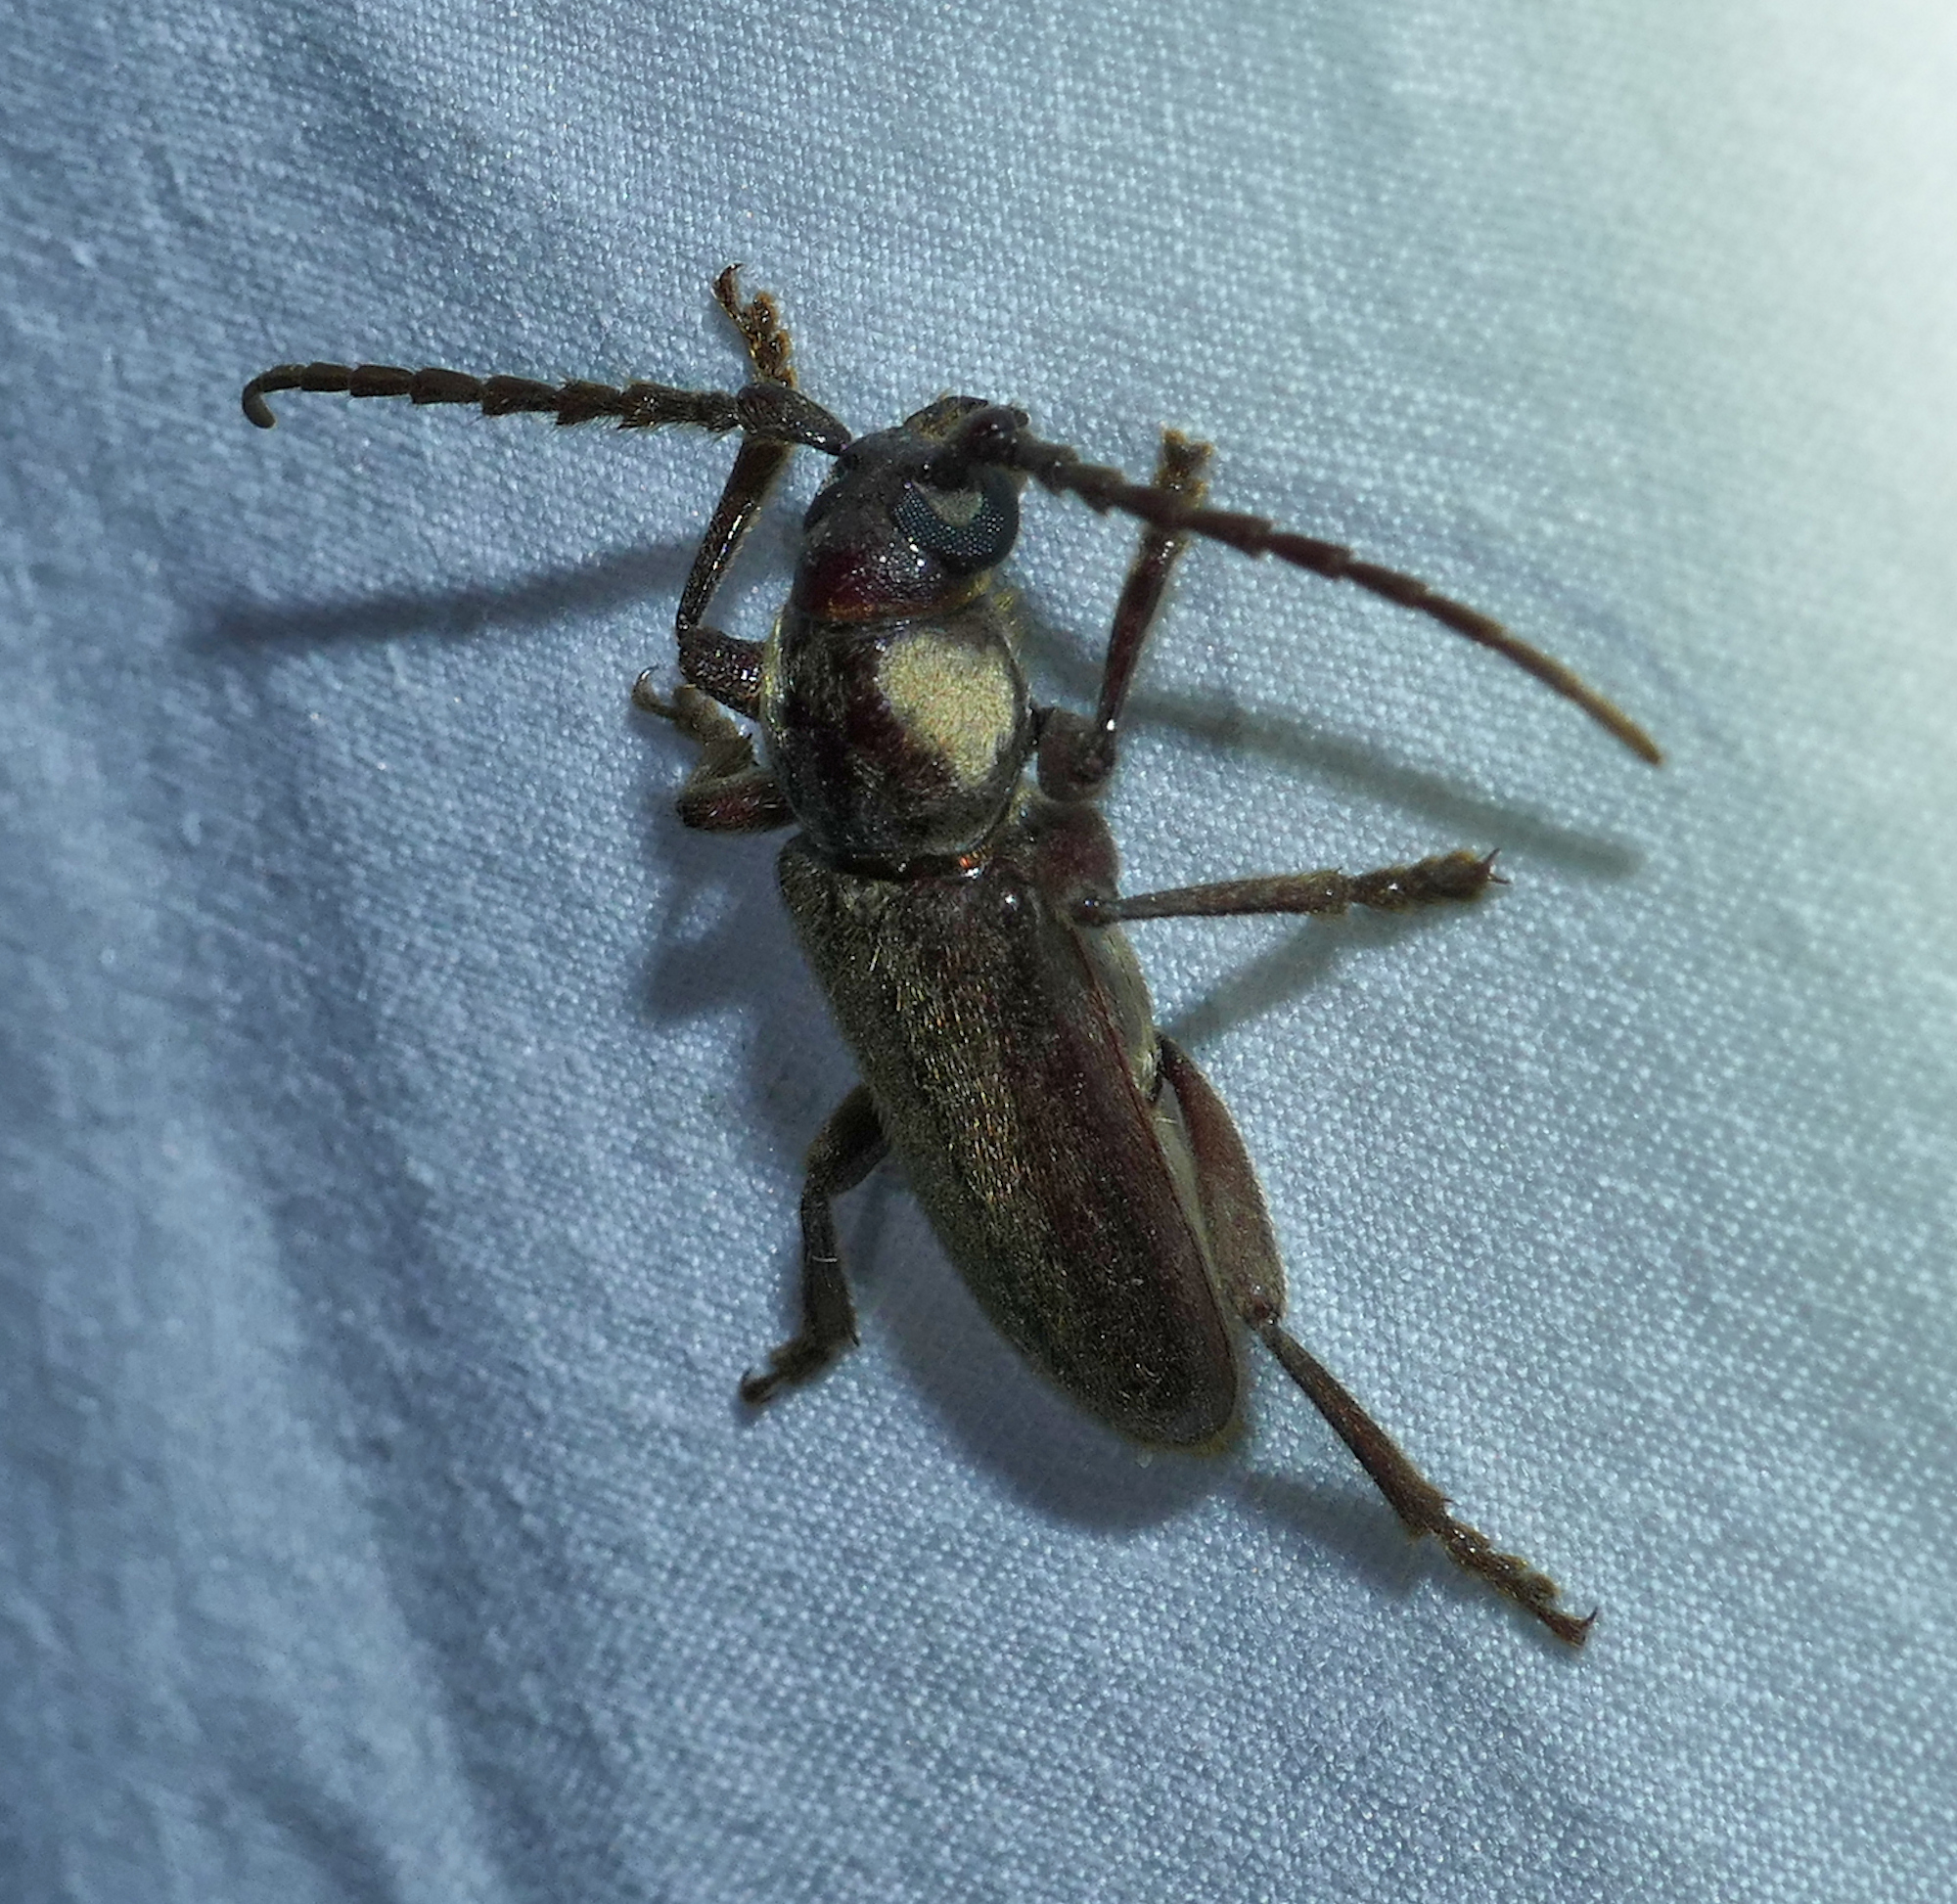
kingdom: Animalia
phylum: Arthropoda
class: Insecta
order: Coleoptera
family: Cerambycidae
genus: Eustromula
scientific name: Eustromula validum
